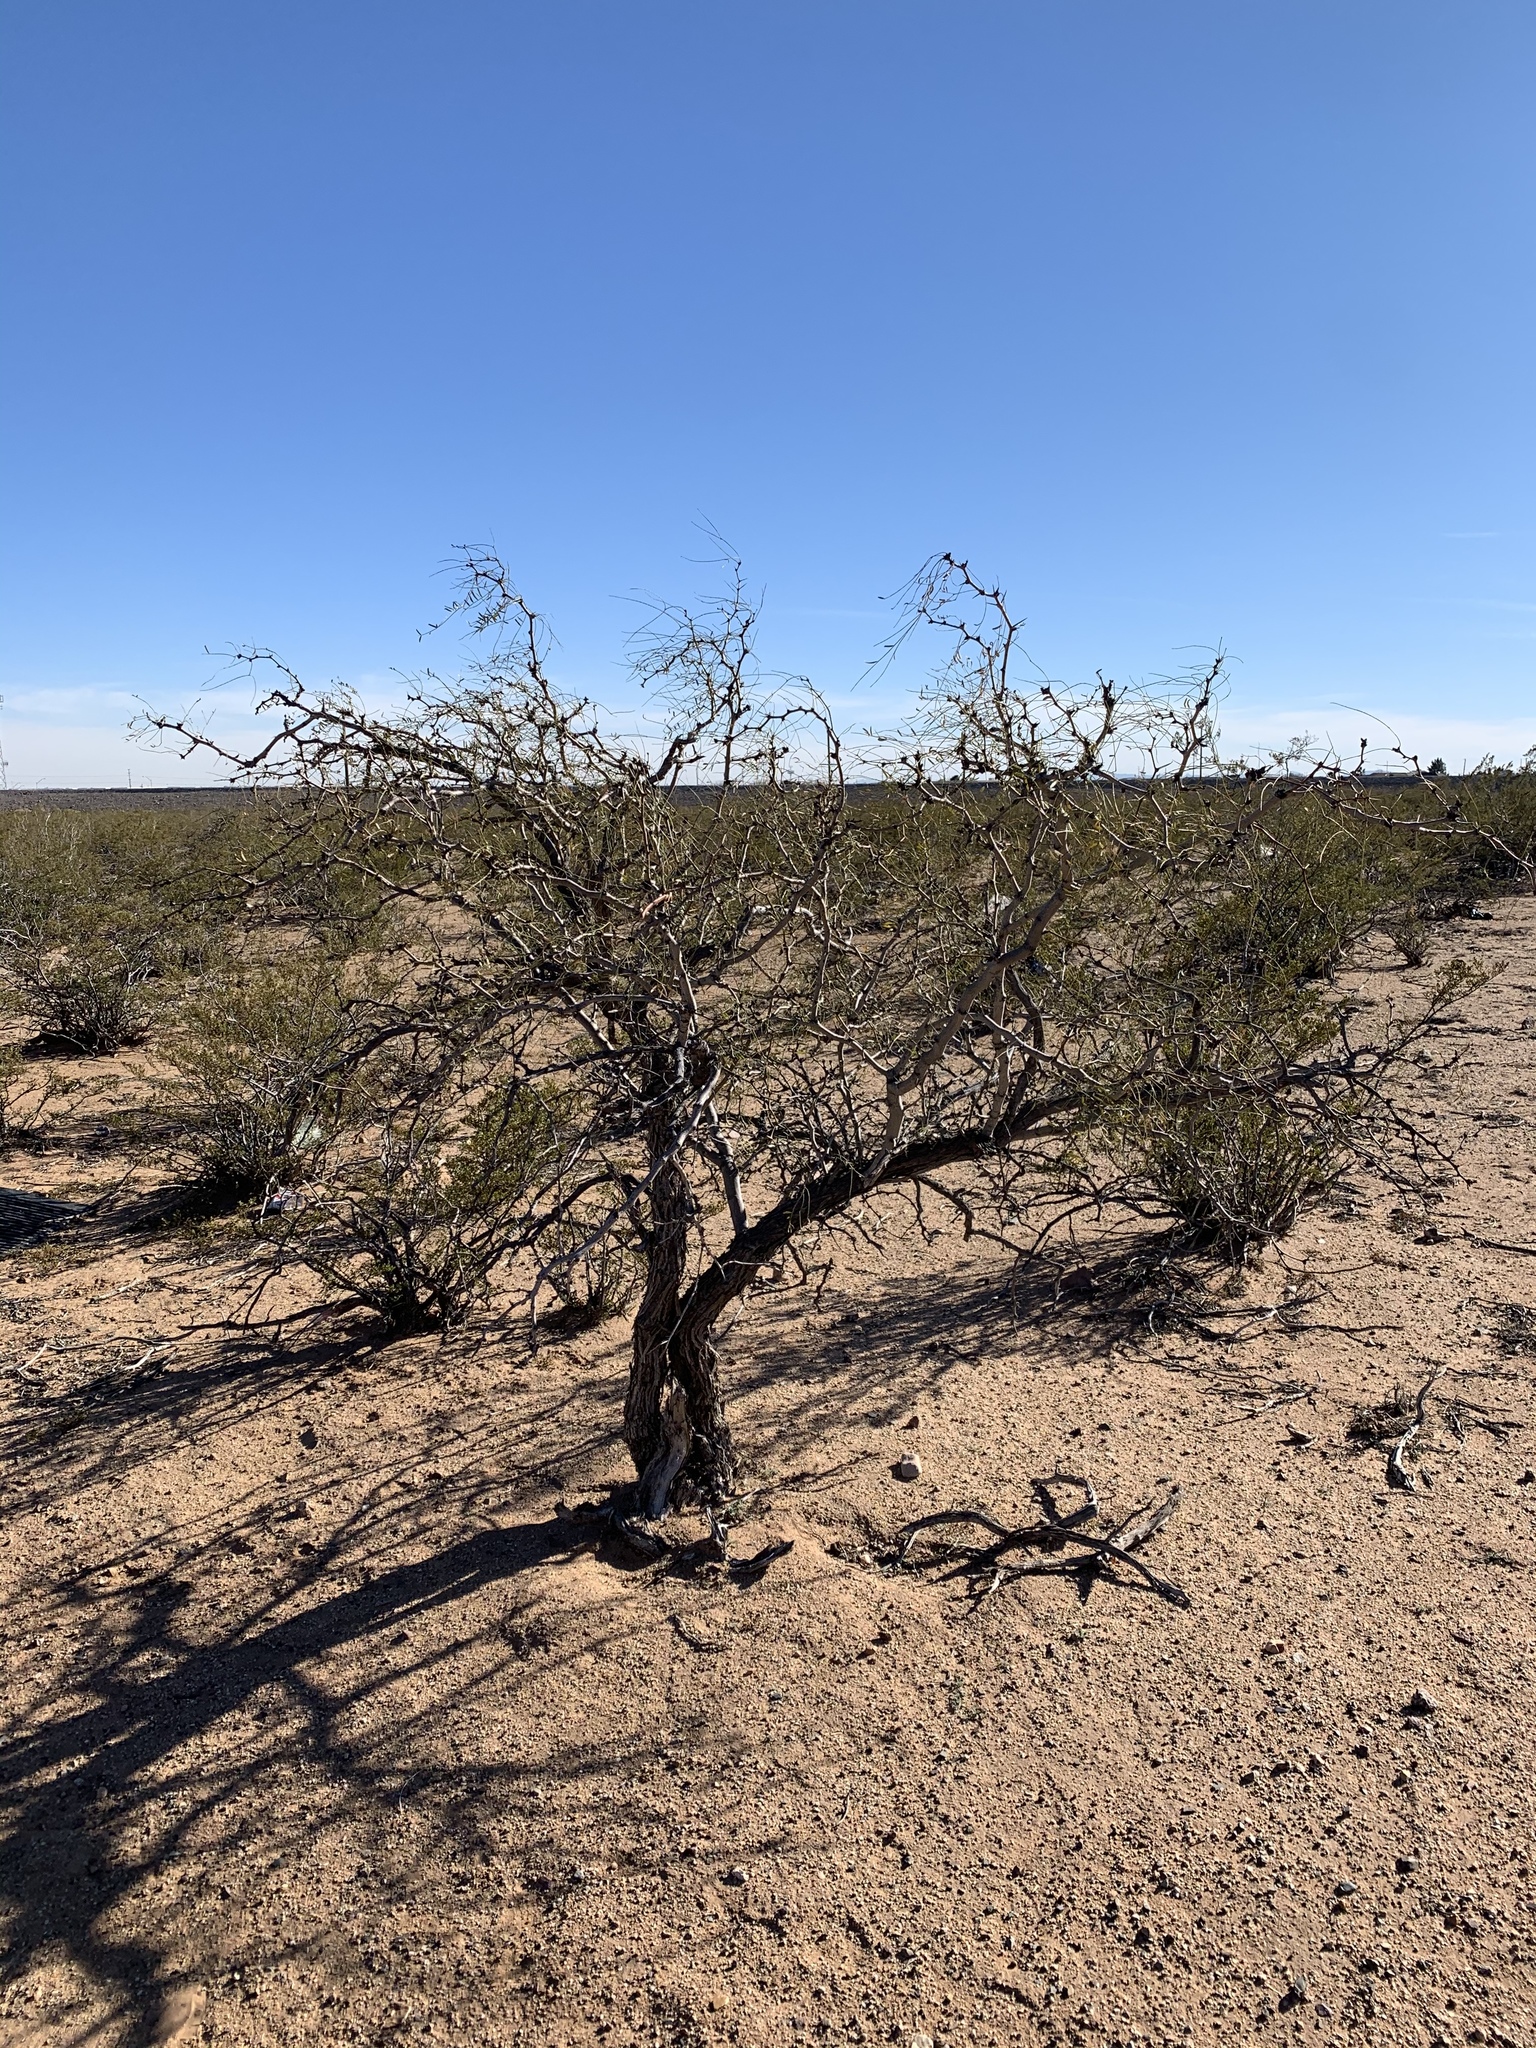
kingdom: Plantae
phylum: Tracheophyta
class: Magnoliopsida
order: Fabales
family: Fabaceae
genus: Prosopis
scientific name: Prosopis glandulosa
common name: Honey mesquite
